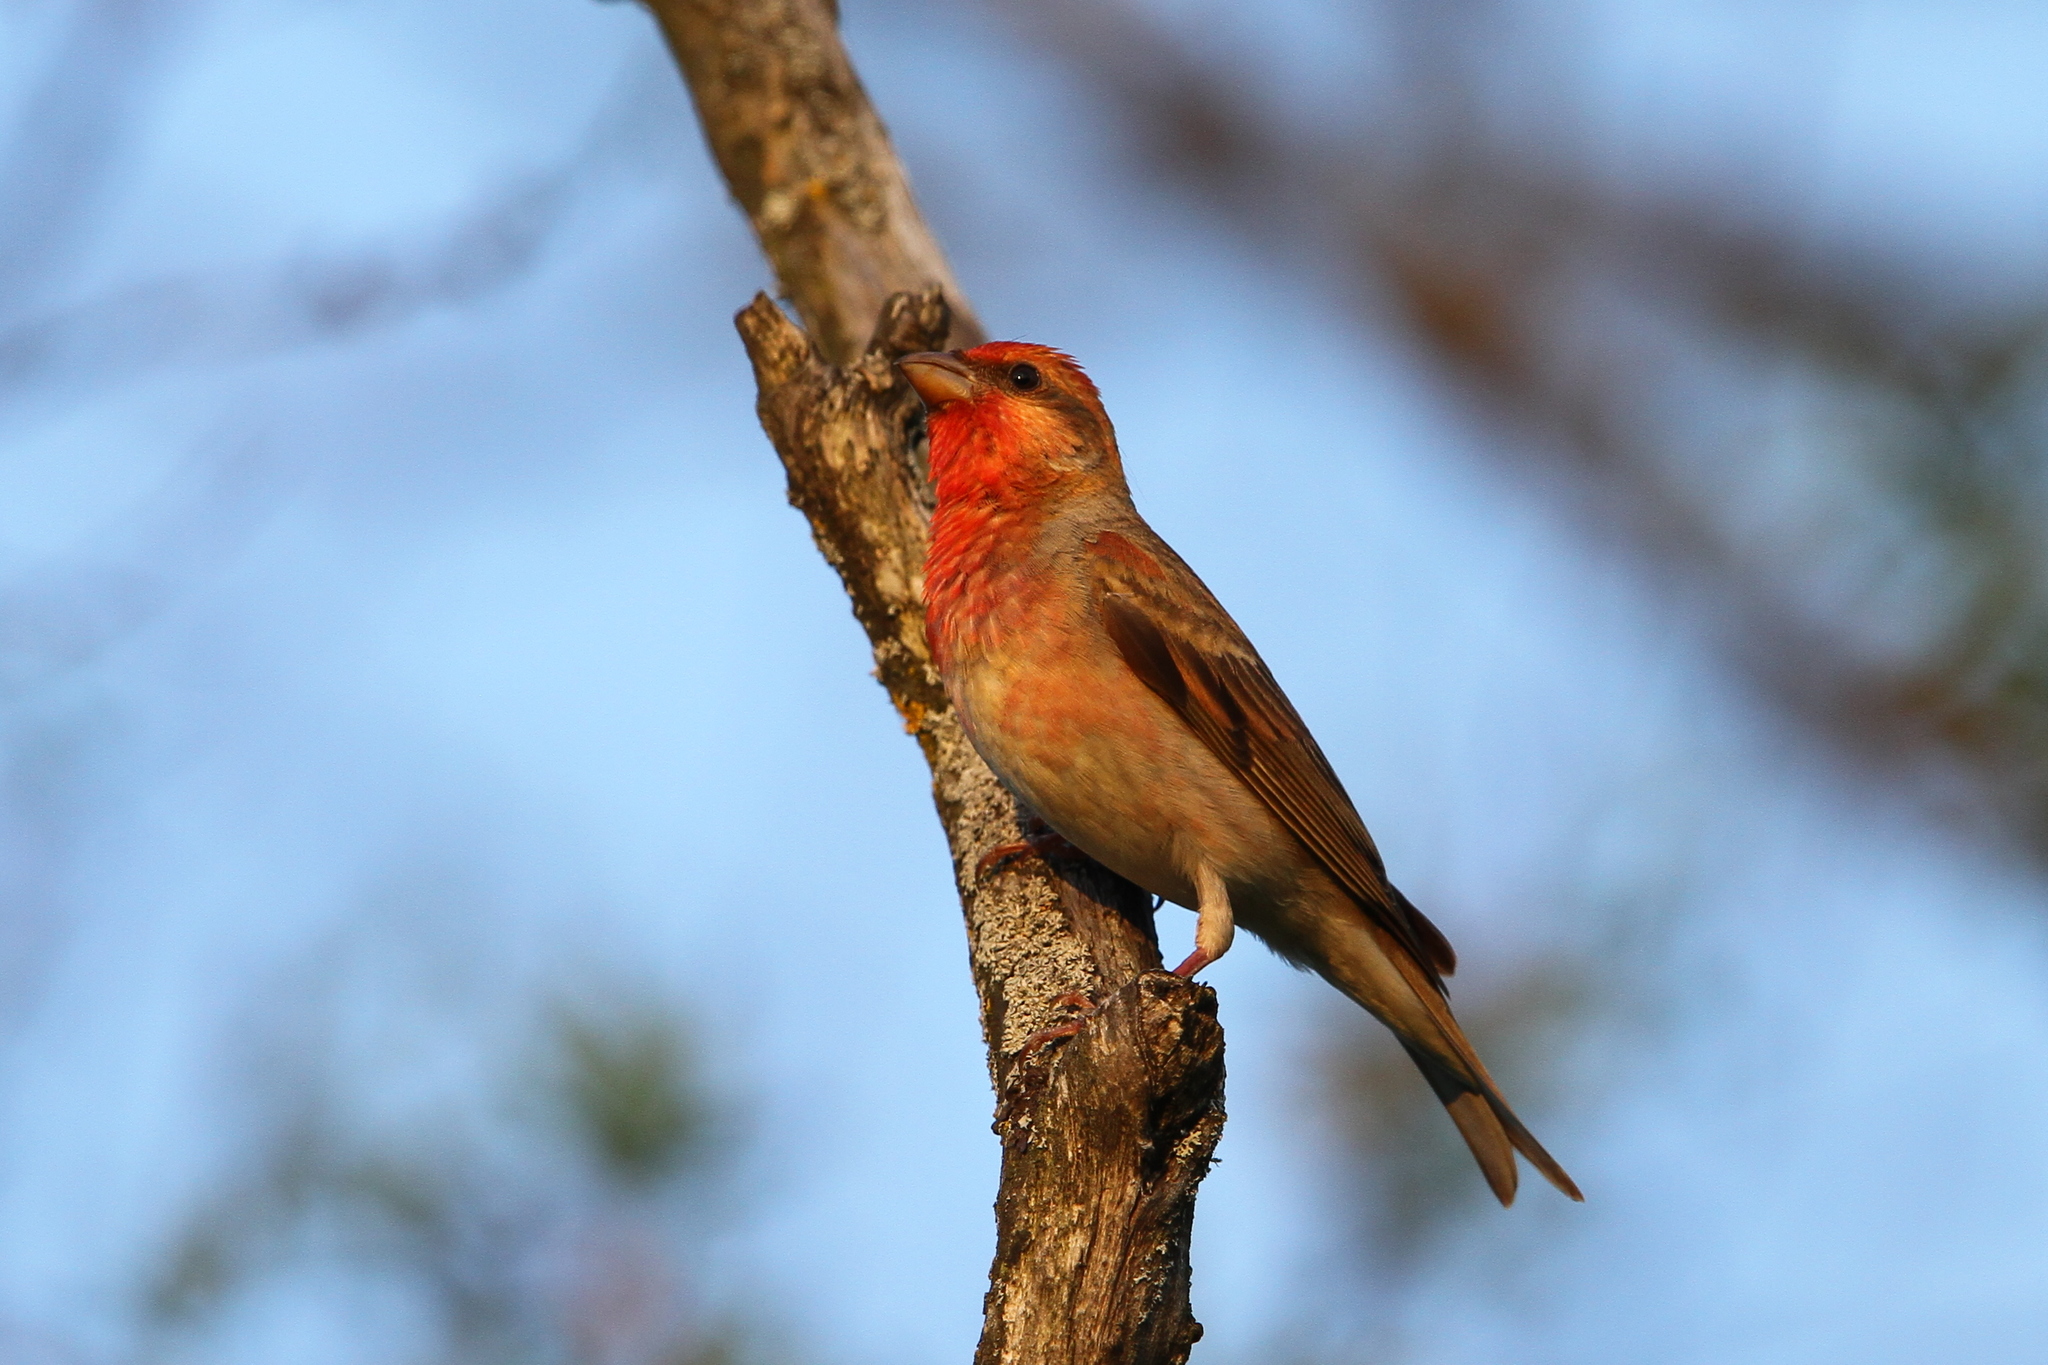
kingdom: Animalia
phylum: Chordata
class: Aves
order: Passeriformes
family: Fringillidae
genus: Carpodacus
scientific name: Carpodacus erythrinus
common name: Common rosefinch
